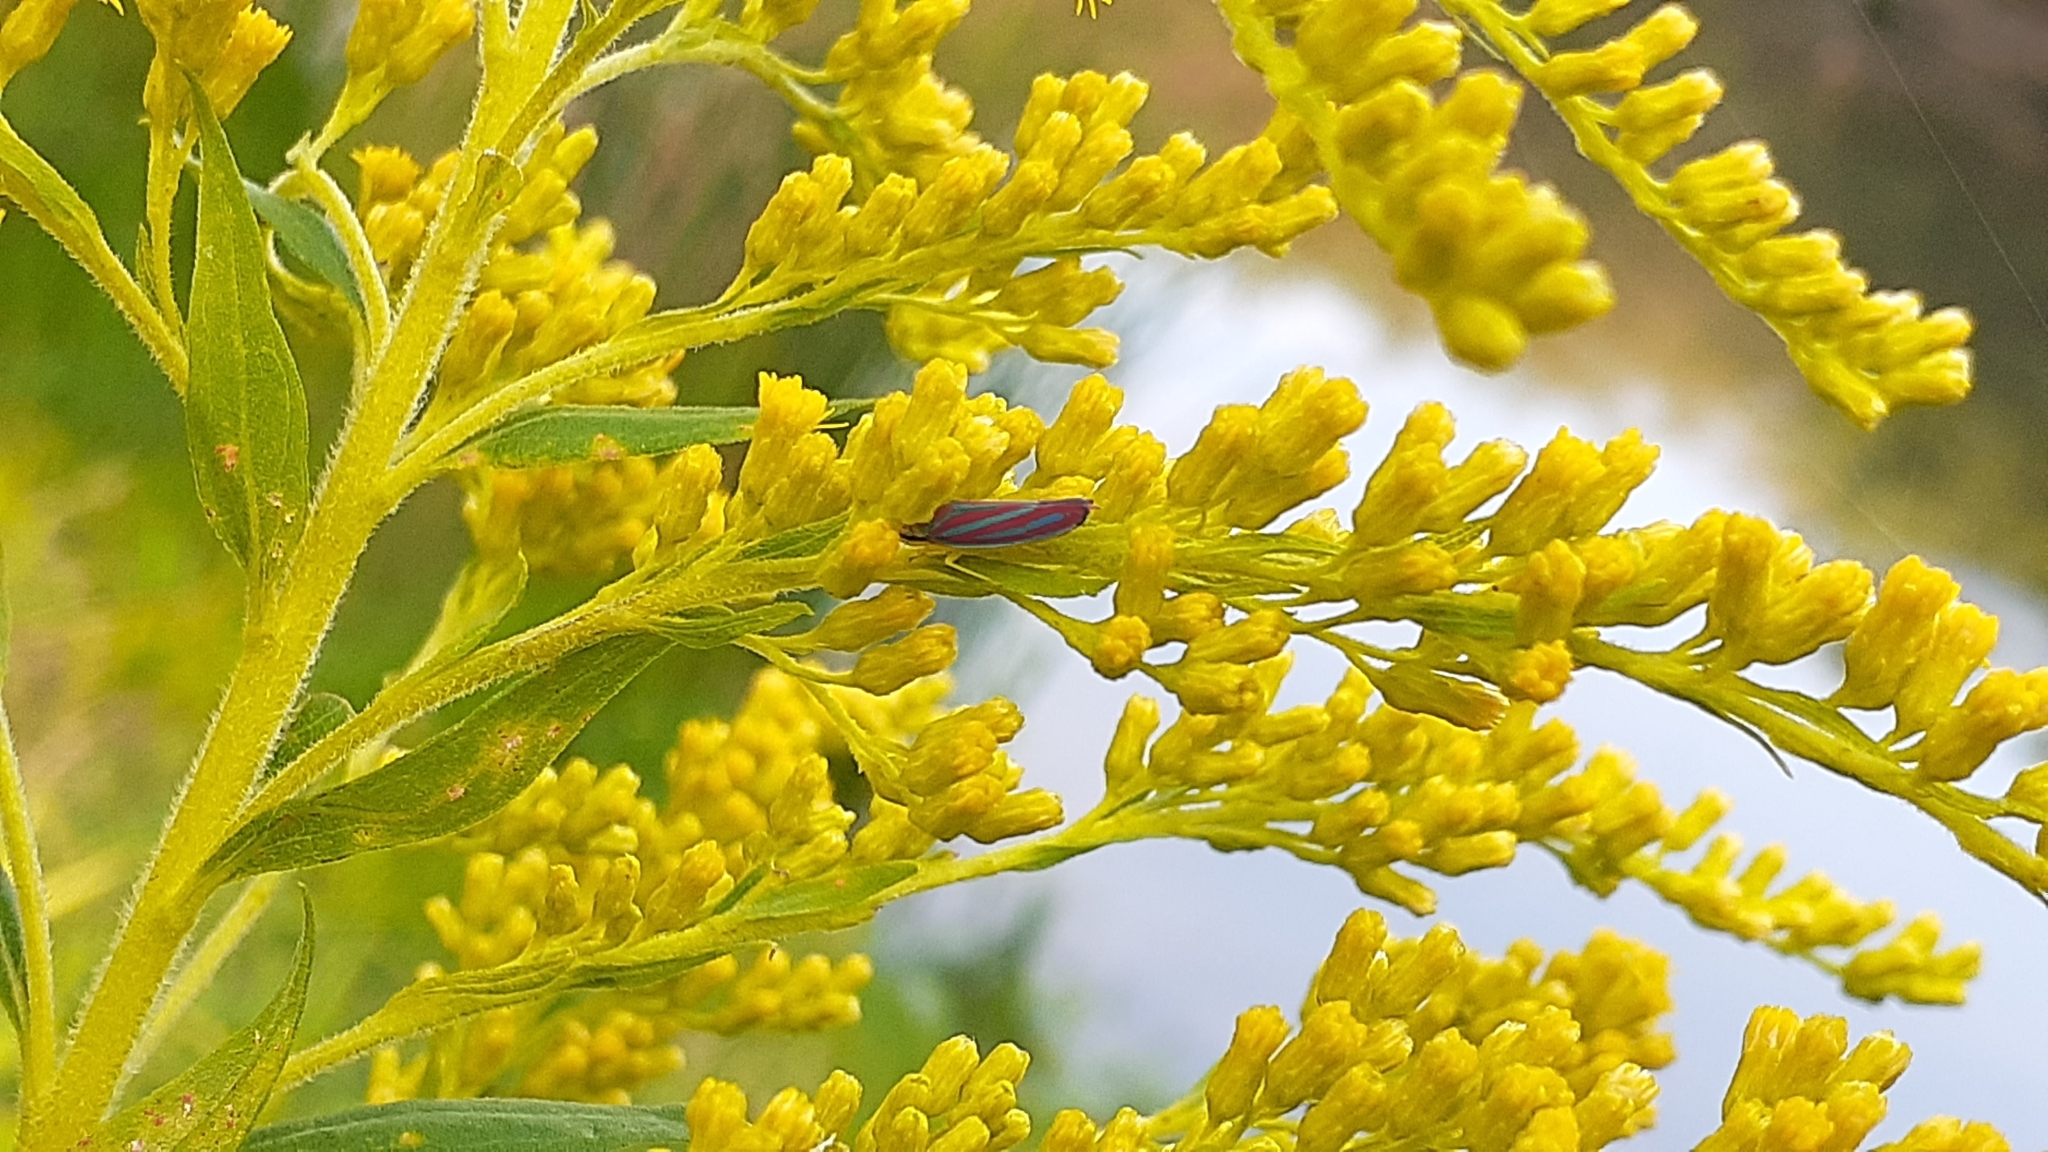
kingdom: Animalia
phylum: Arthropoda
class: Insecta
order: Hemiptera
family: Cicadellidae
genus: Graphocephala
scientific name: Graphocephala coccinea
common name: Candy-striped leafhopper
